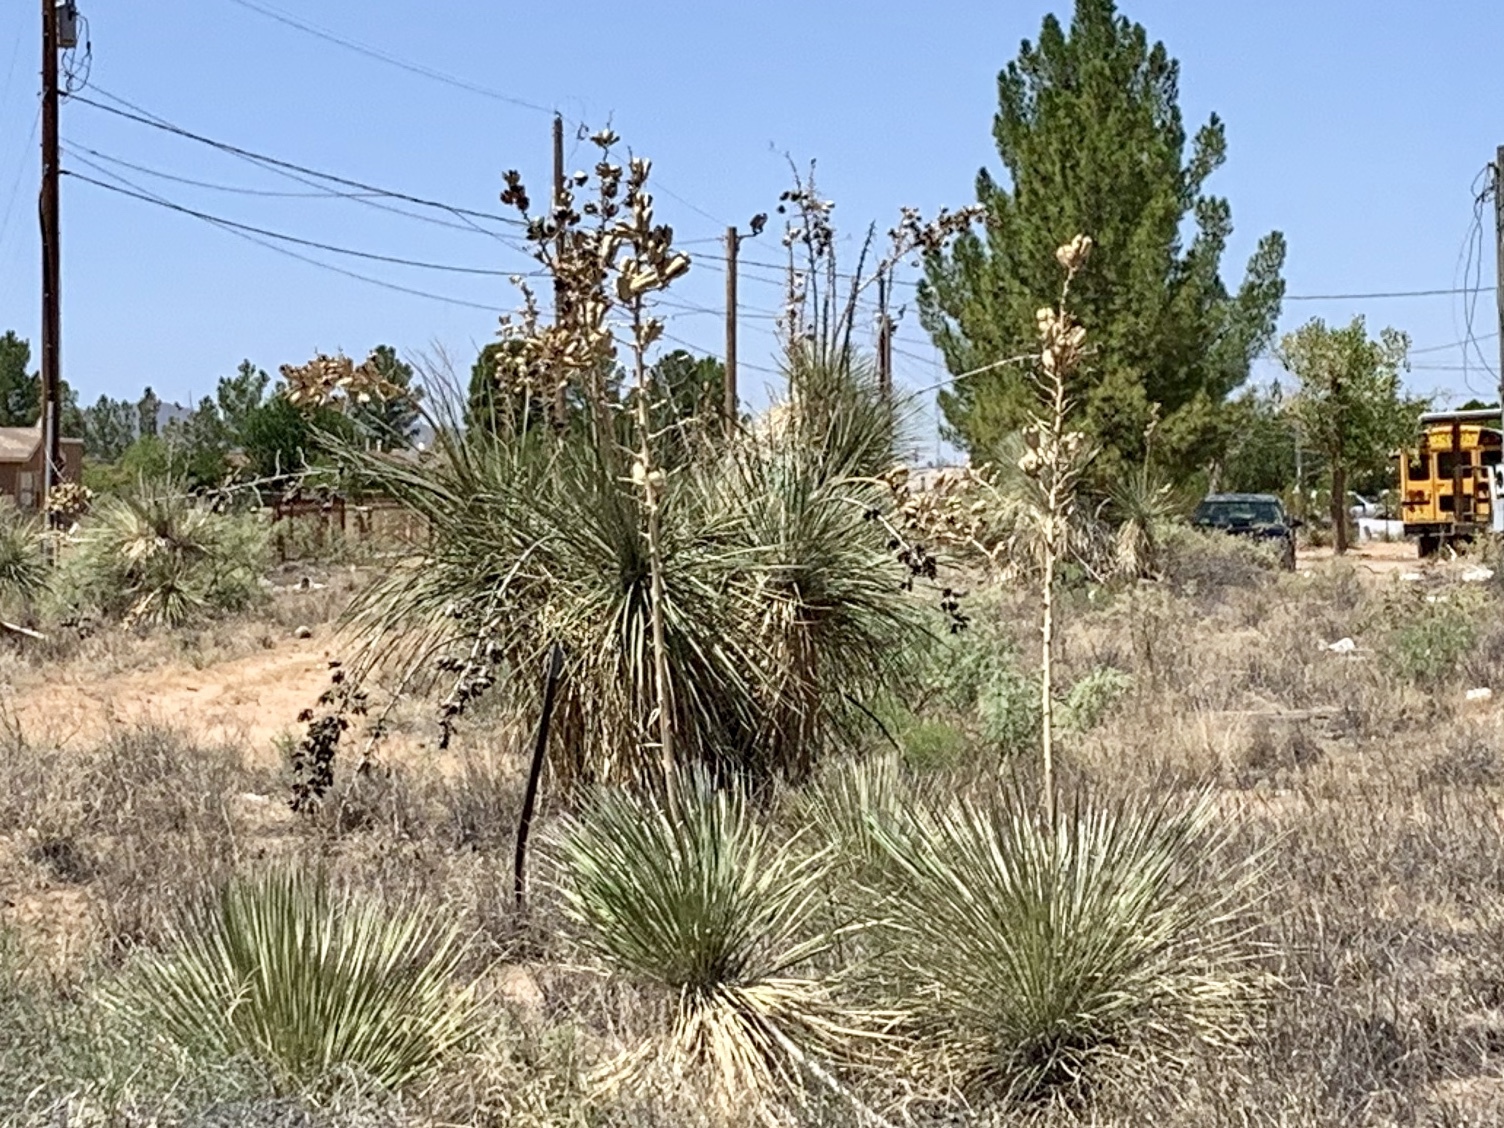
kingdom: Plantae
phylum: Tracheophyta
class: Liliopsida
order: Asparagales
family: Asparagaceae
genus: Yucca
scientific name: Yucca elata
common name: Palmella
